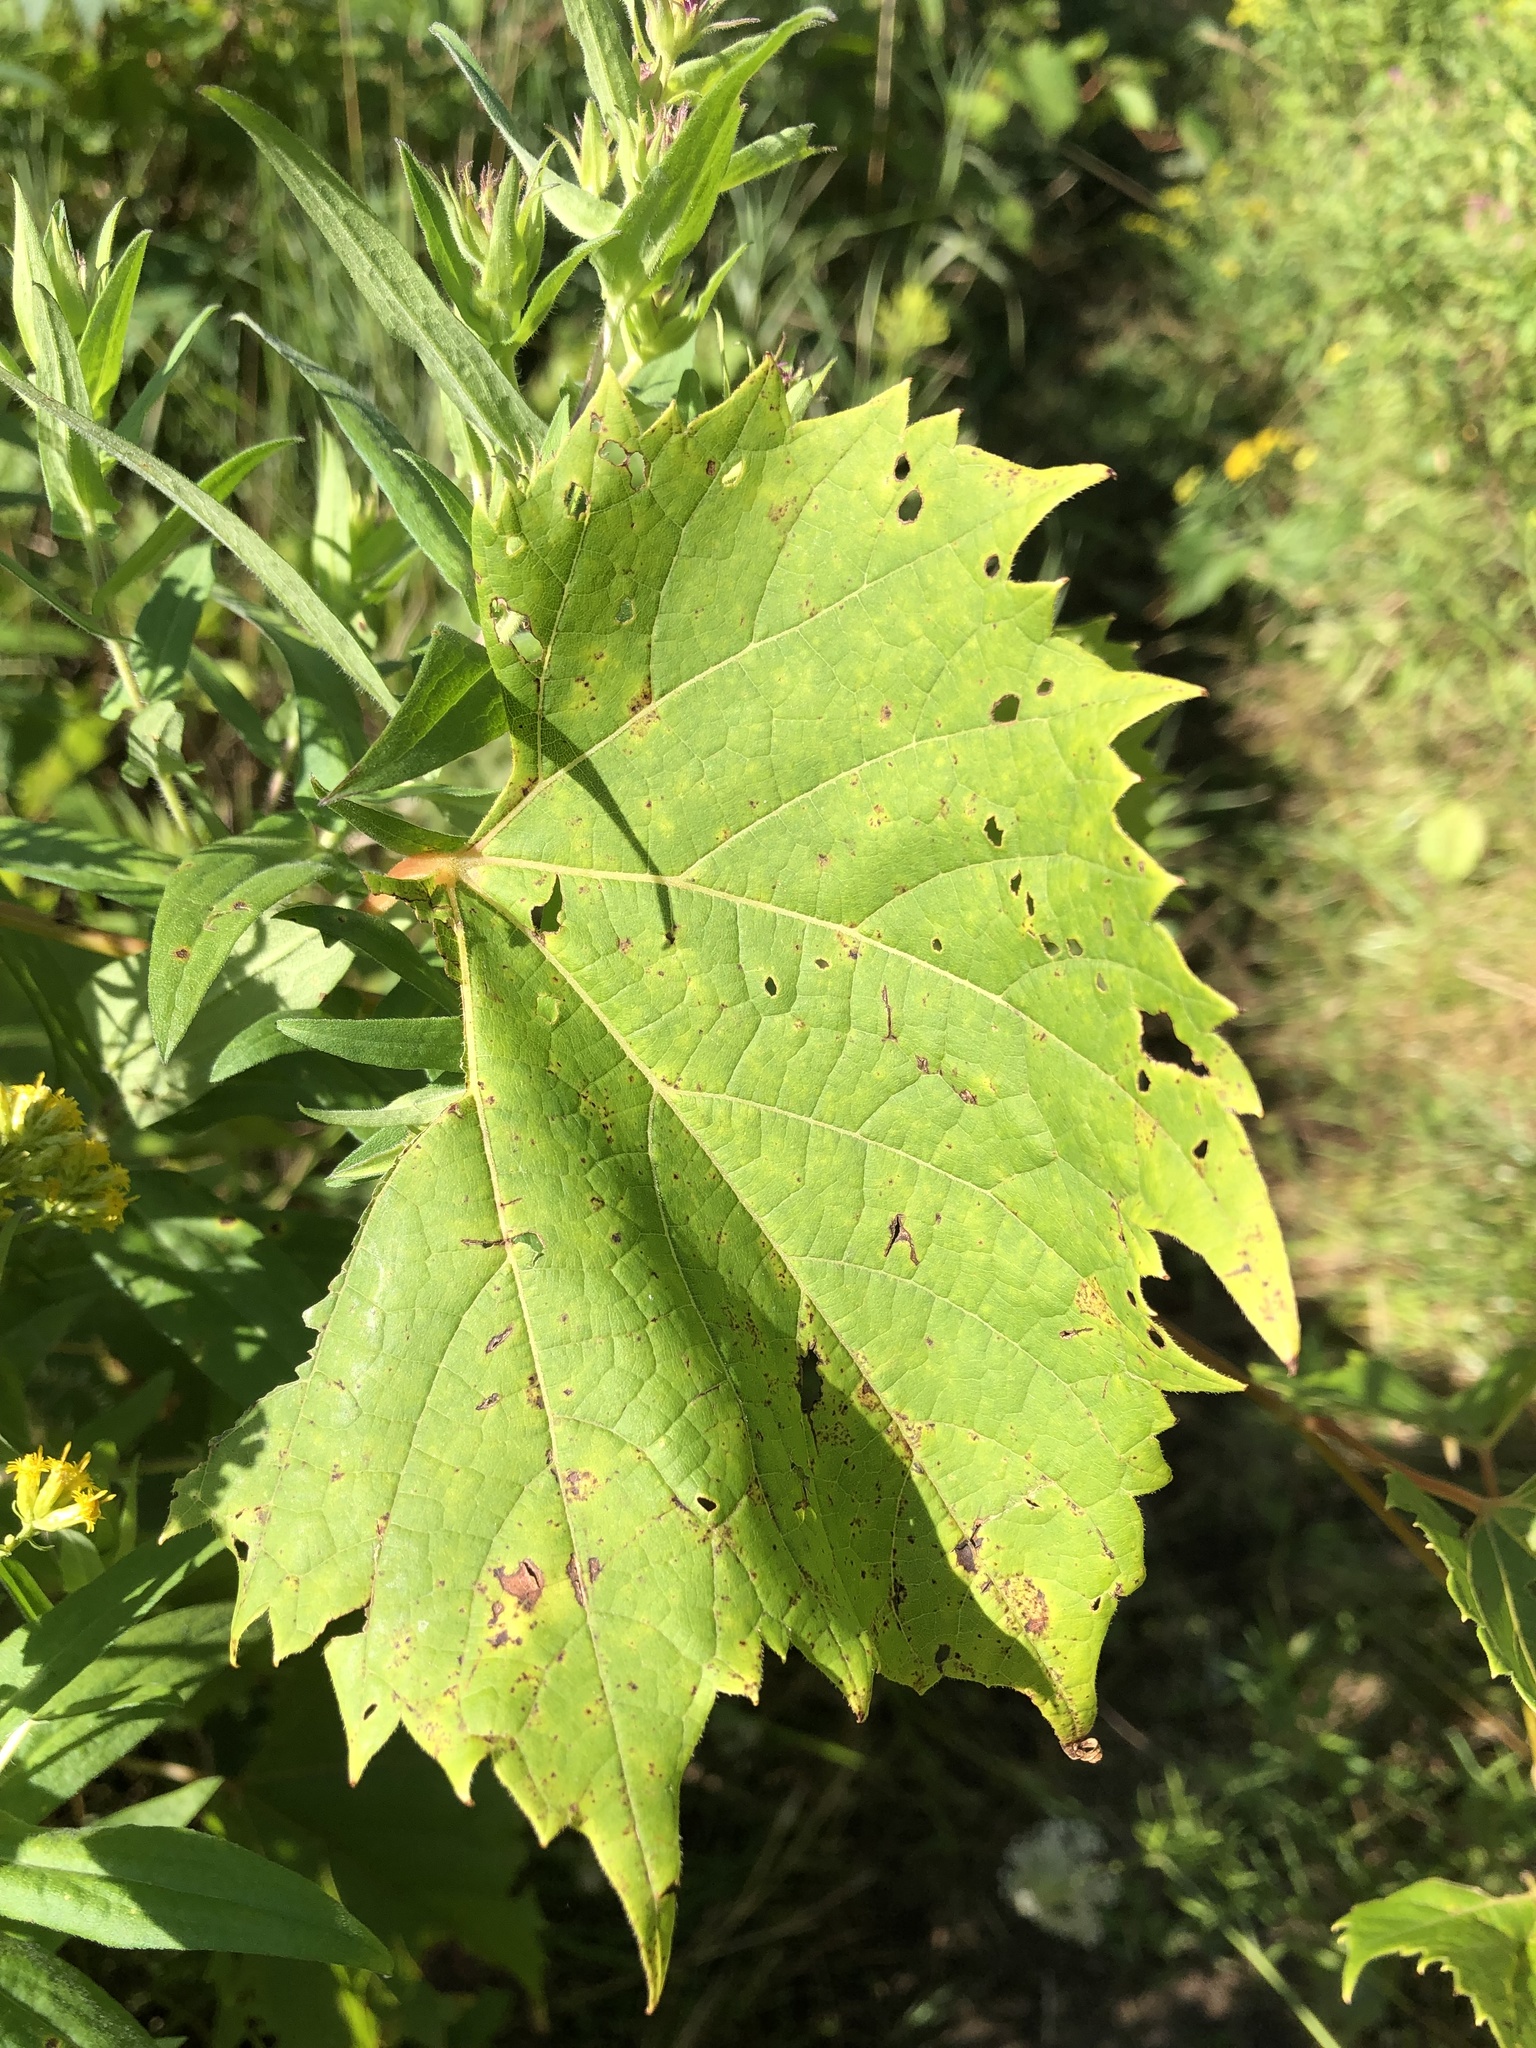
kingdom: Plantae
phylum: Tracheophyta
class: Magnoliopsida
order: Vitales
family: Vitaceae
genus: Vitis
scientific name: Vitis riparia
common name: Frost grape
